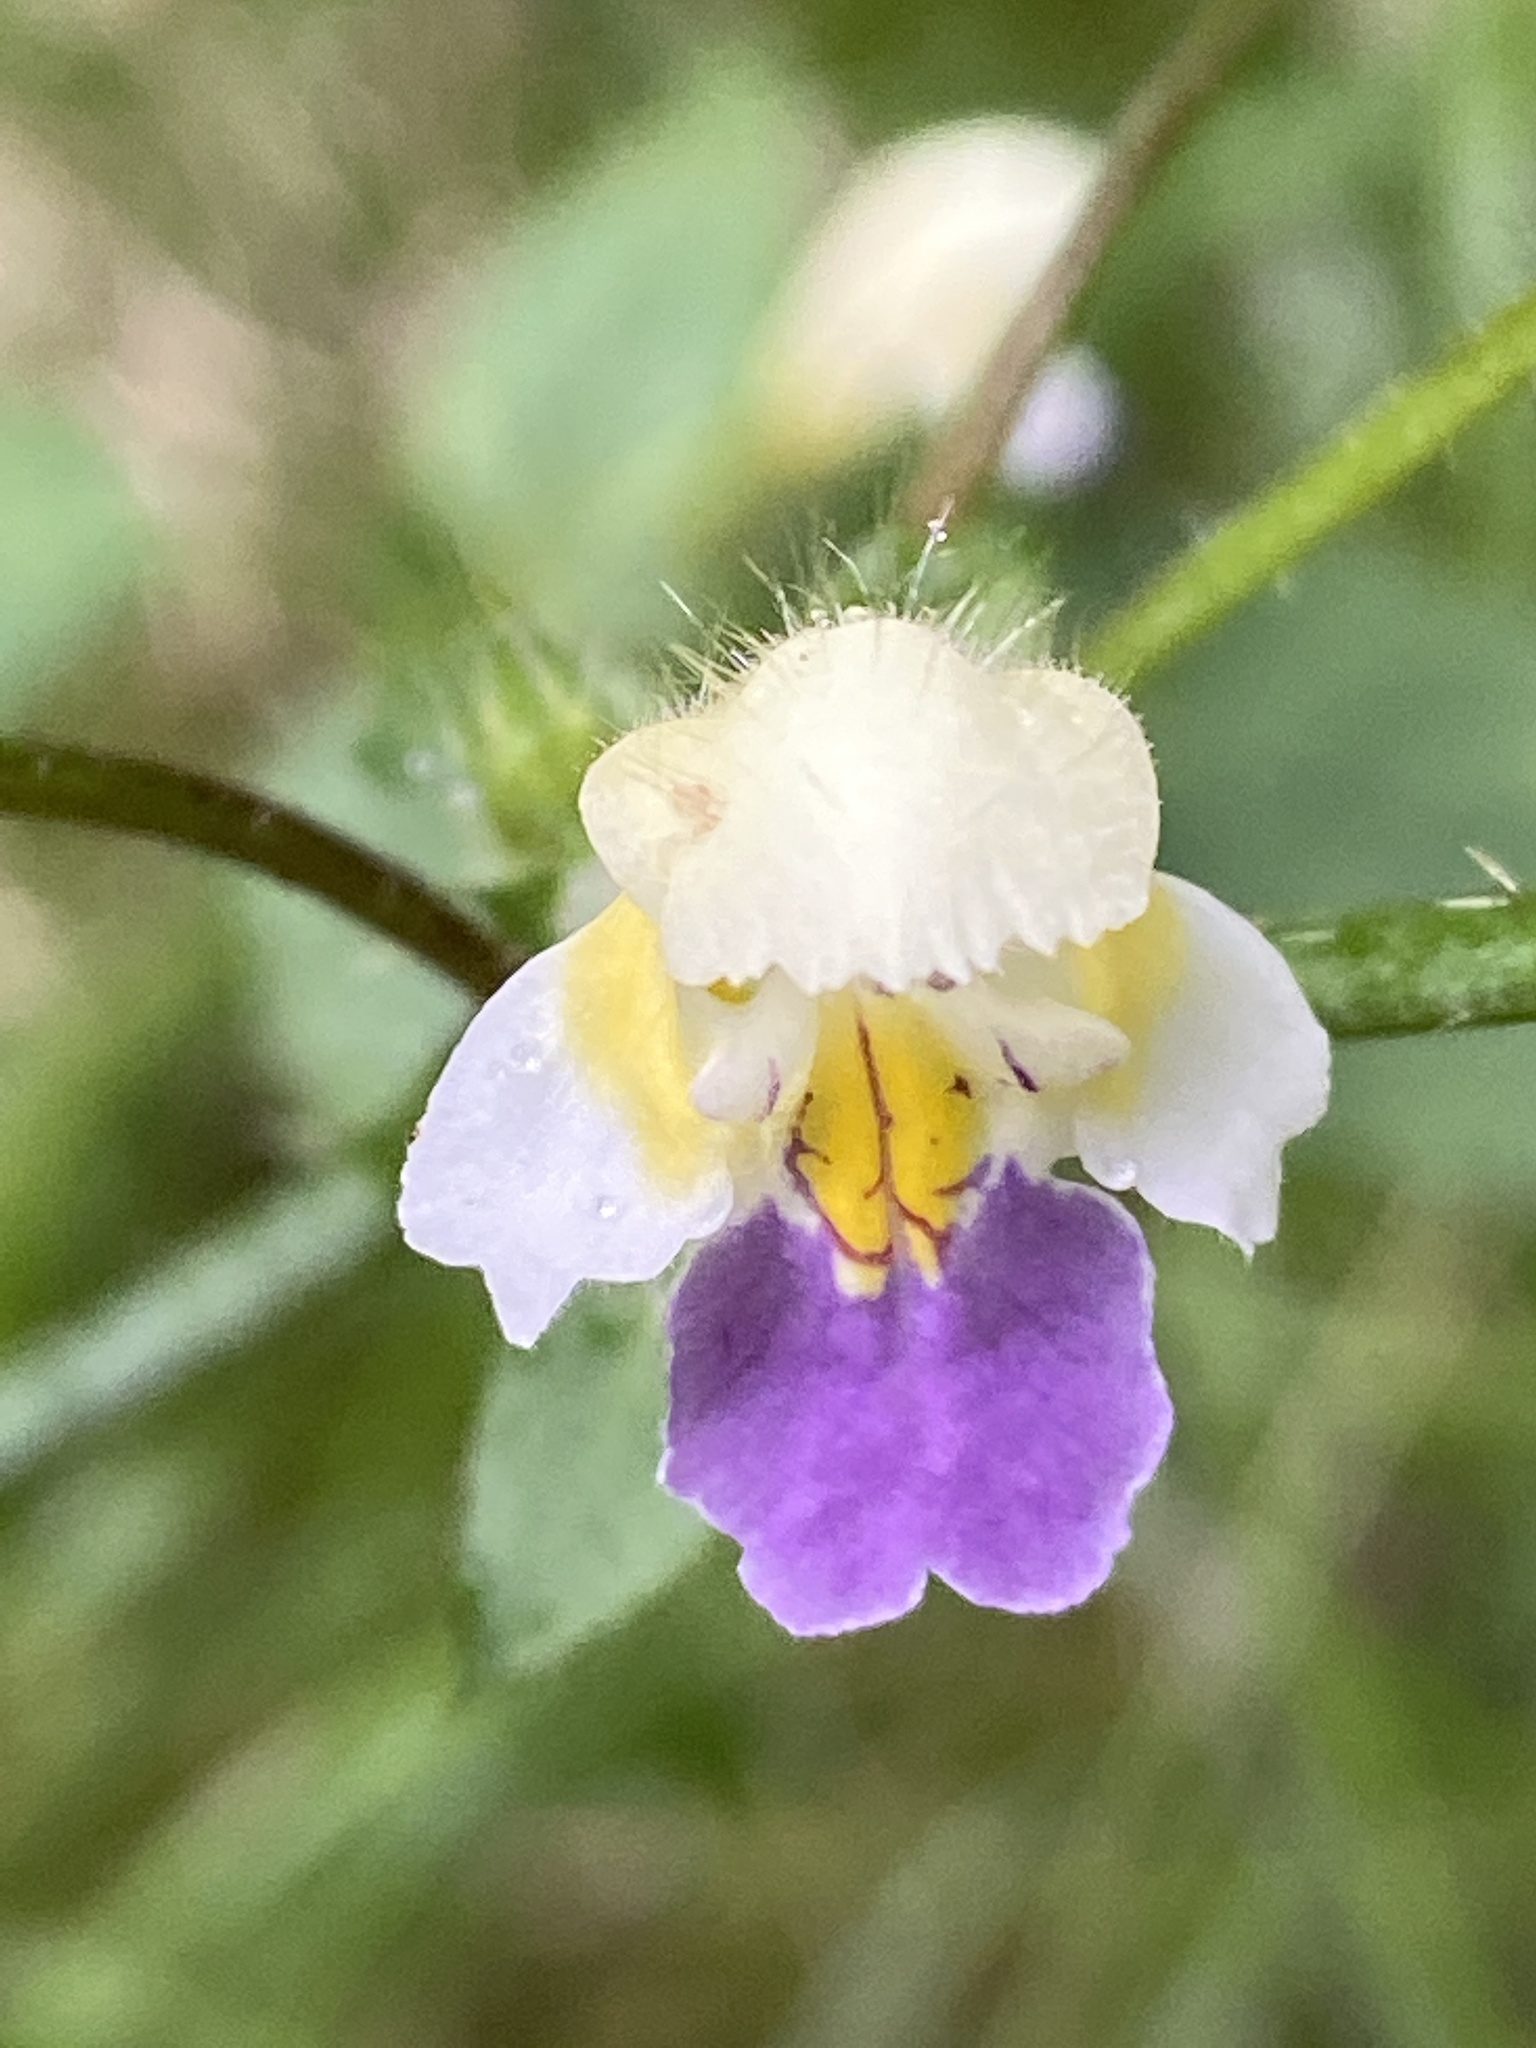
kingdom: Plantae
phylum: Tracheophyta
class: Magnoliopsida
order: Lamiales
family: Lamiaceae
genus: Galeopsis
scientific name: Galeopsis speciosa
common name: Large-flowered hemp-nettle
